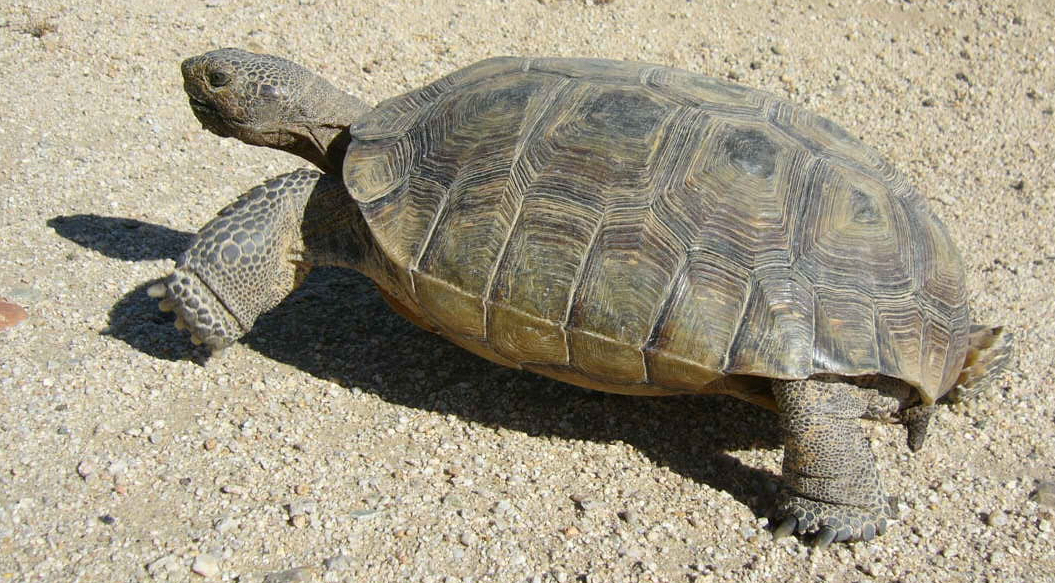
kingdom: Animalia
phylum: Chordata
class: Testudines
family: Testudinidae
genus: Gopherus
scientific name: Gopherus agassizii
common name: Mojave desert tortoise
